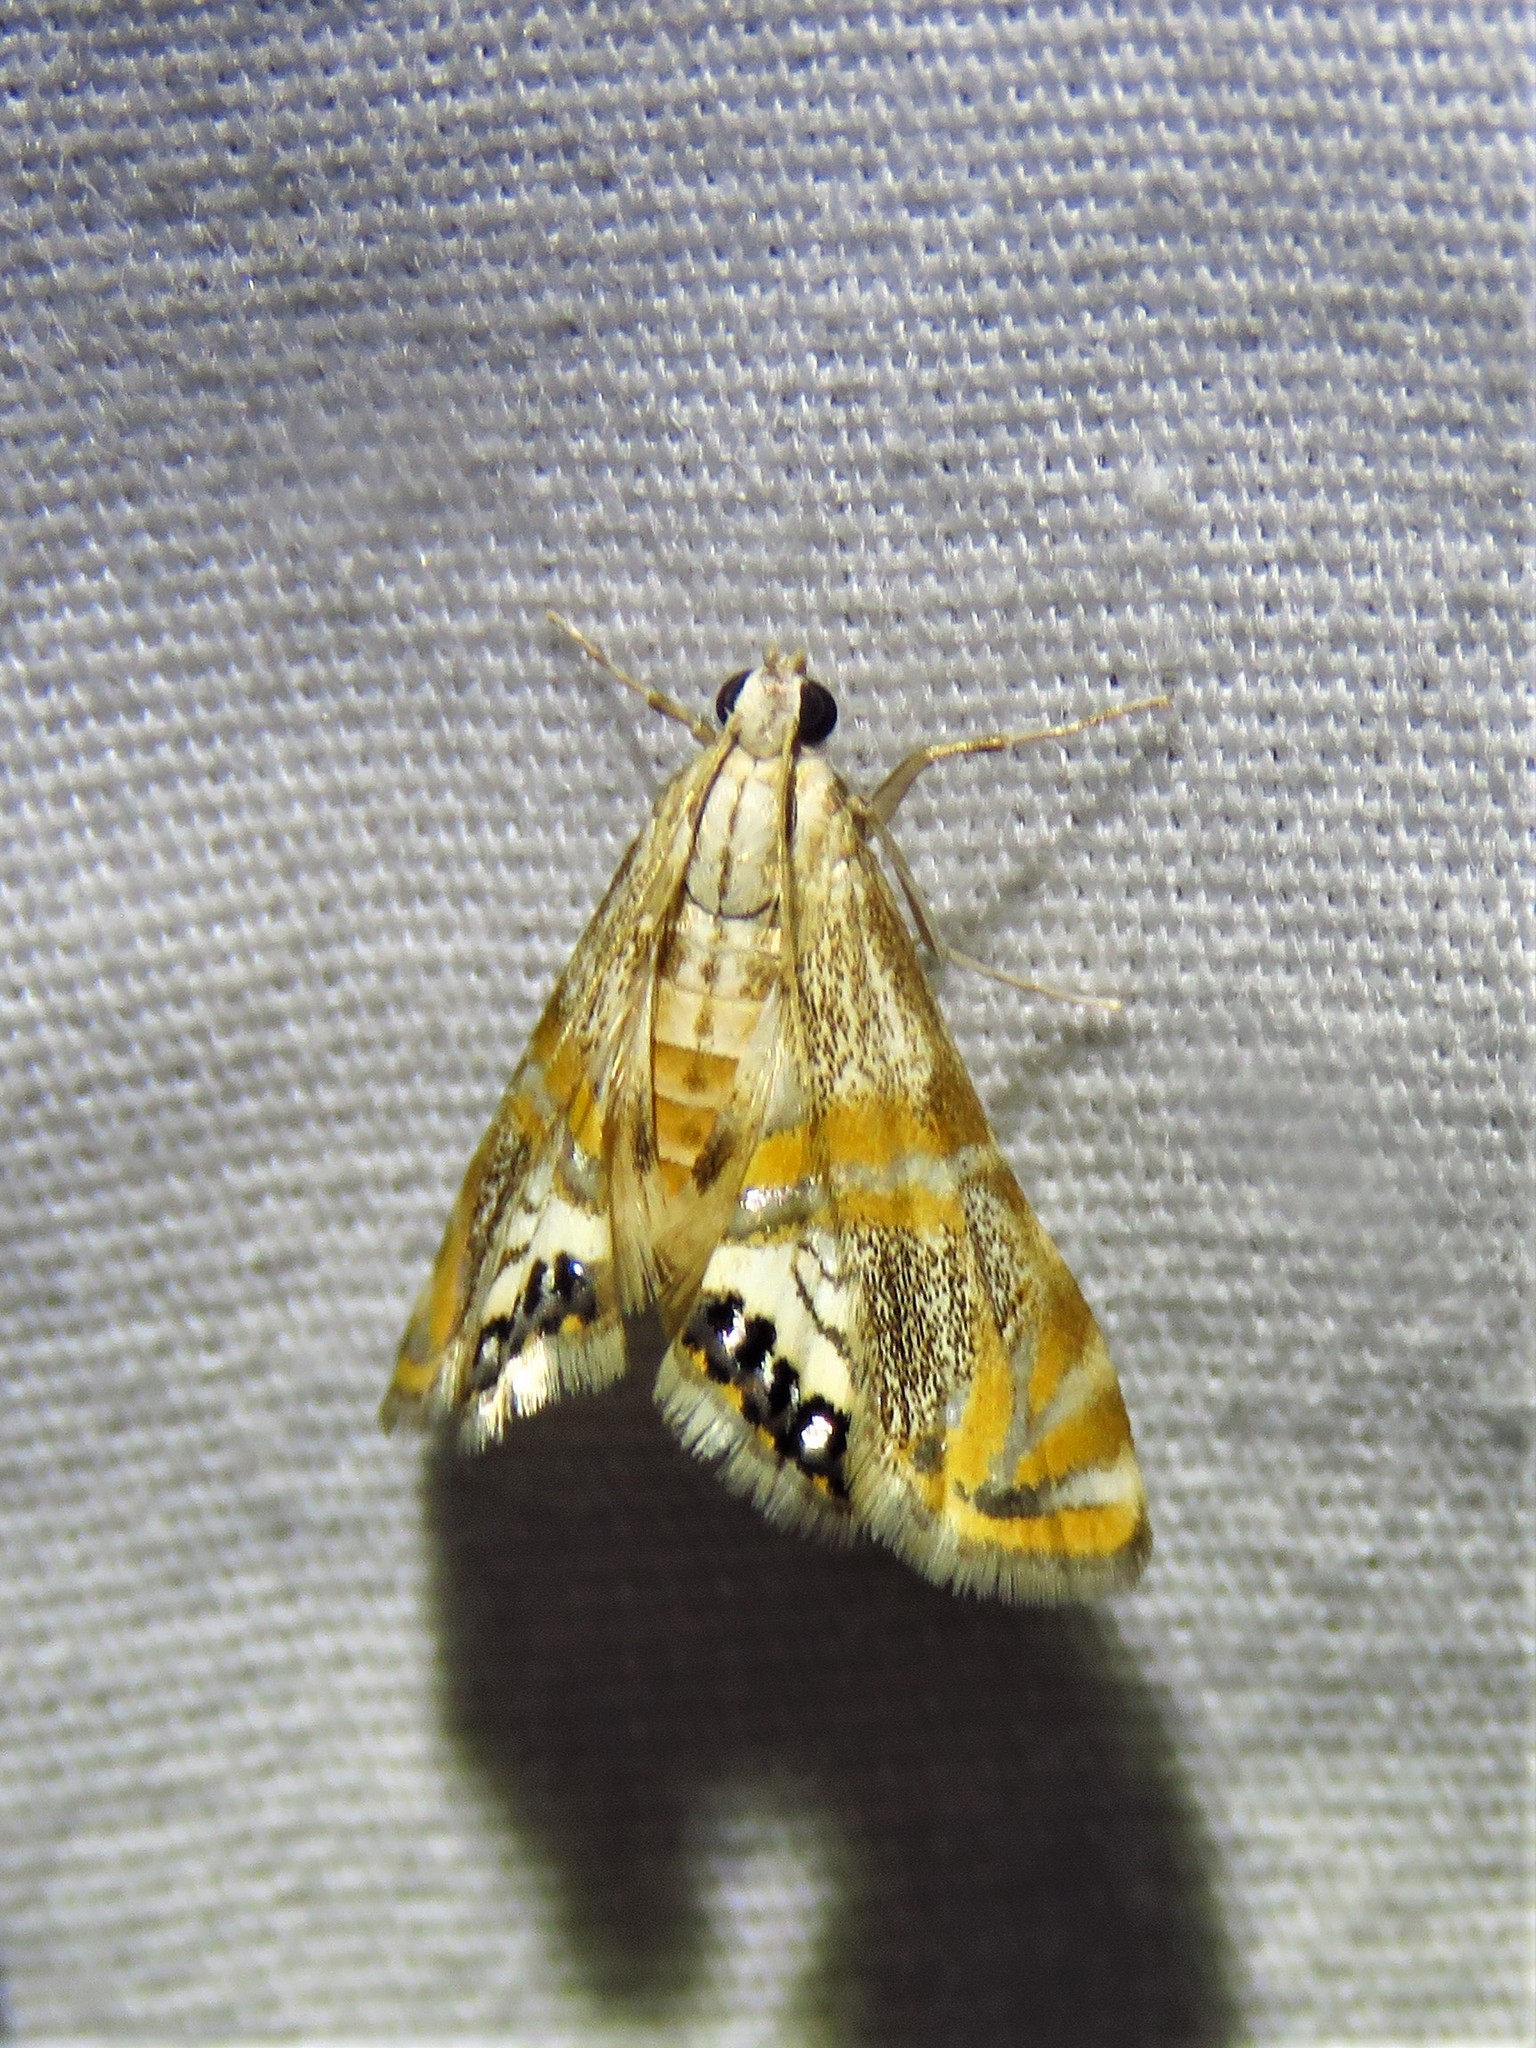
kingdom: Animalia
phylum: Arthropoda
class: Insecta
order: Lepidoptera
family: Crambidae
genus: Petrophila
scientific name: Petrophila cappsi
